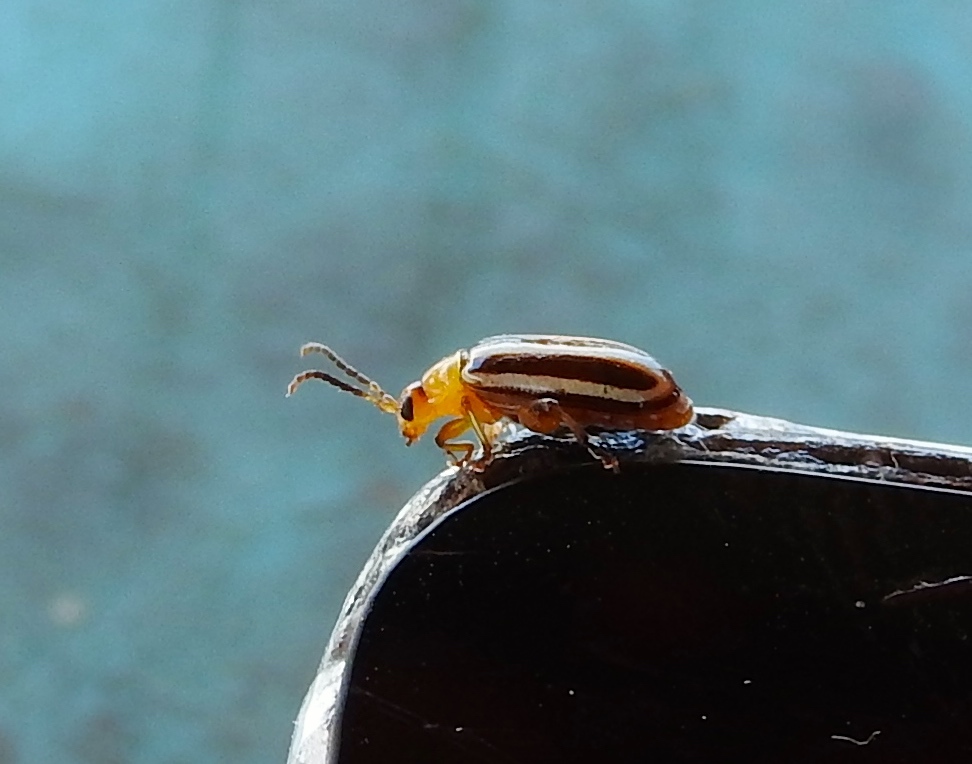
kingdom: Animalia
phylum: Arthropoda
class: Insecta
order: Coleoptera
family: Chrysomelidae
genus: Disonycha
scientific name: Disonycha glabrata
